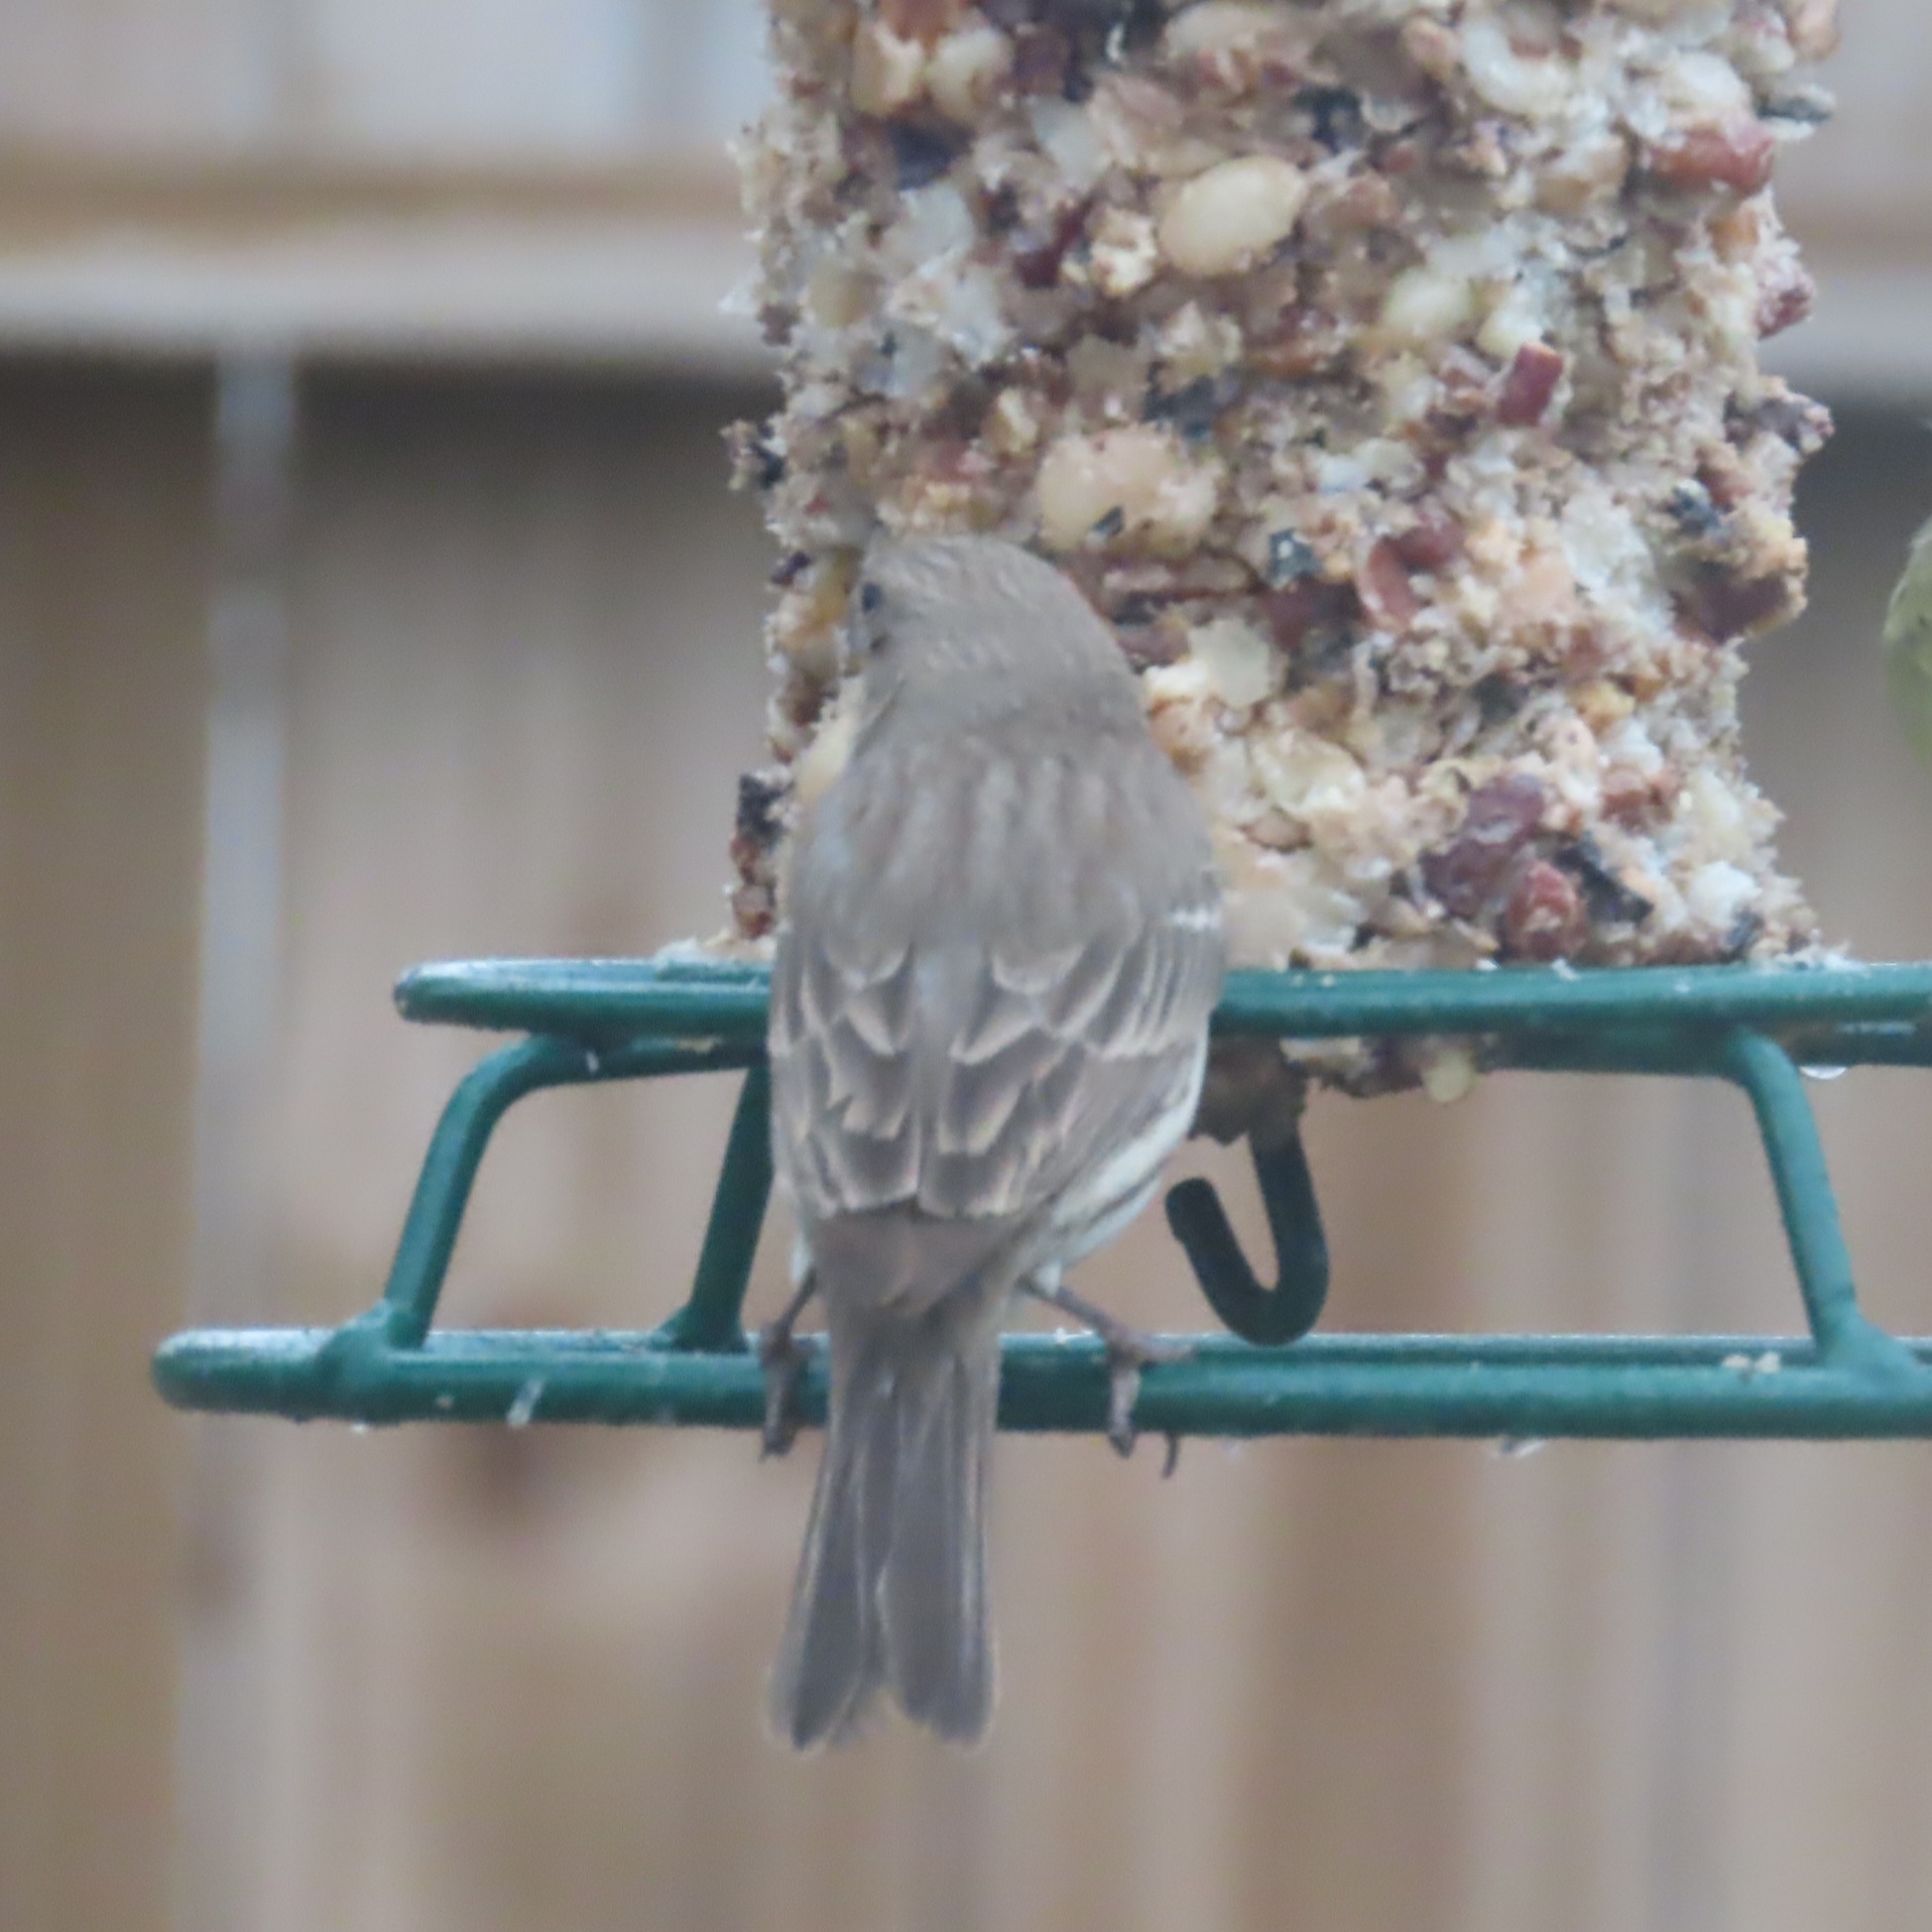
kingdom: Animalia
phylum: Chordata
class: Aves
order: Passeriformes
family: Fringillidae
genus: Haemorhous
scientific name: Haemorhous mexicanus
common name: House finch
